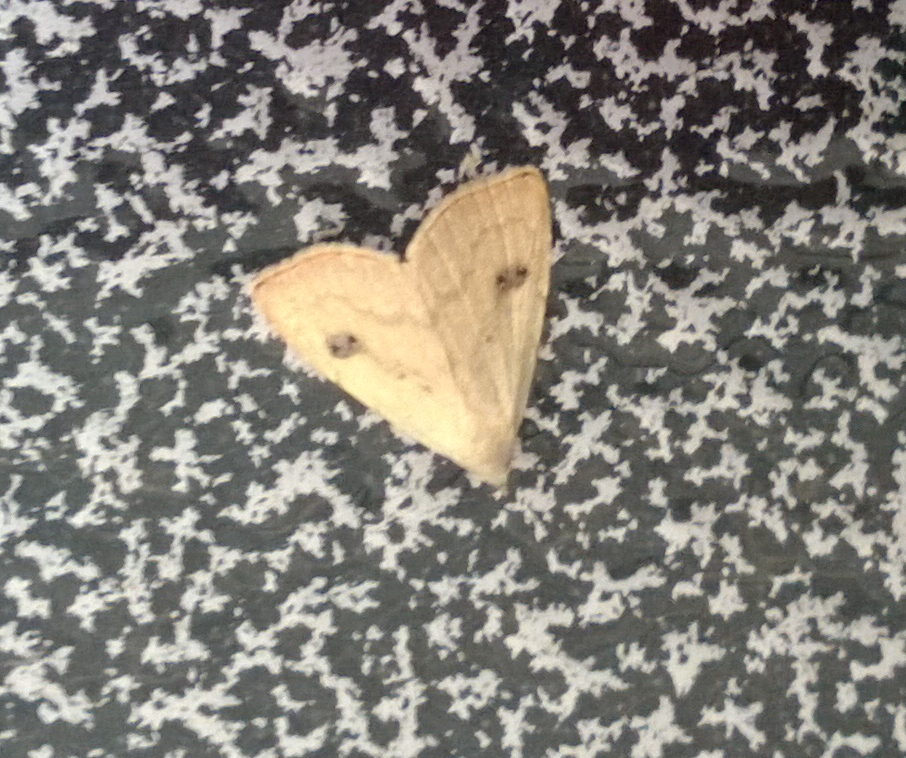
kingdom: Animalia
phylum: Arthropoda
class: Insecta
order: Lepidoptera
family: Erebidae
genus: Rivula
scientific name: Rivula sericealis
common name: Straw dot
